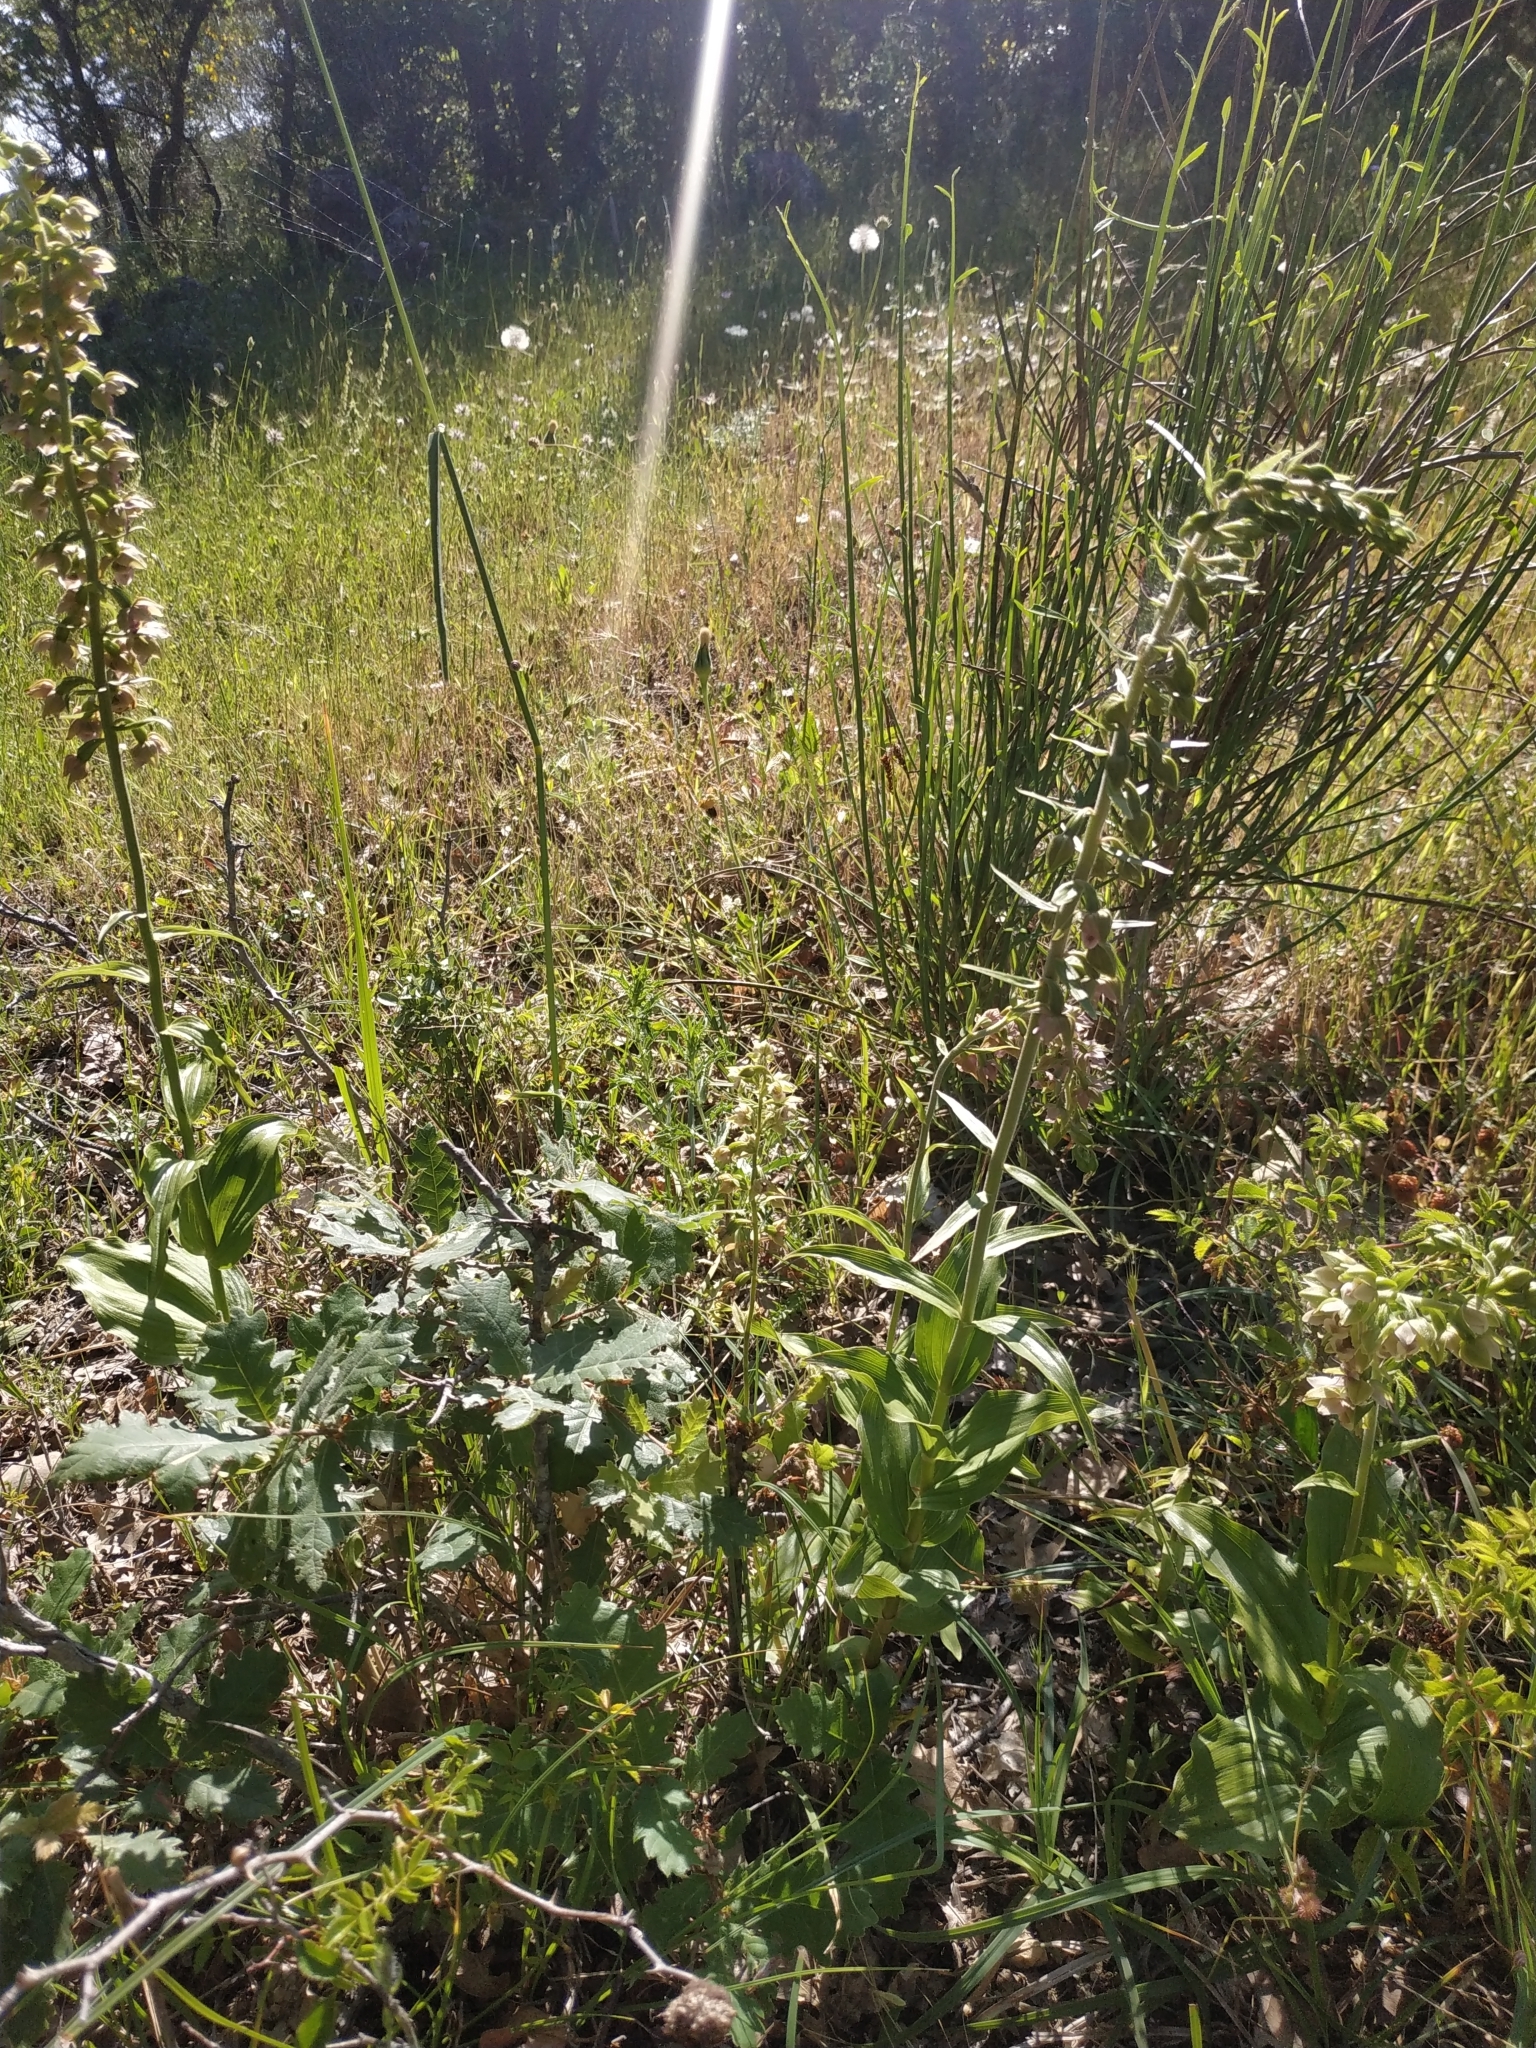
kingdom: Plantae
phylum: Tracheophyta
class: Liliopsida
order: Asparagales
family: Orchidaceae
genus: Epipactis
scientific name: Epipactis helleborine
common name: Broad-leaved helleborine
